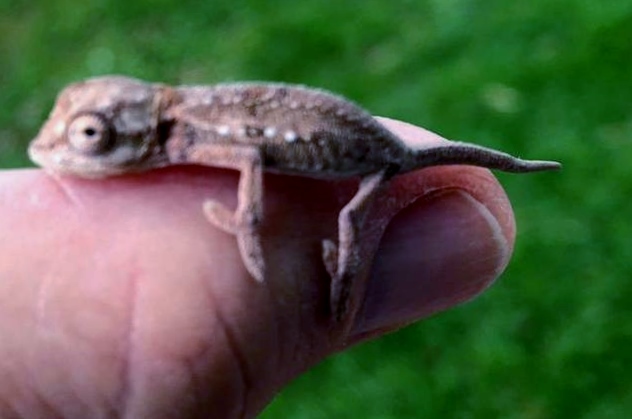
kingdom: Animalia
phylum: Chordata
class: Squamata
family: Chamaeleonidae
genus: Bradypodion
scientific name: Bradypodion pumilum
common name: Cape dwarf chameleon
